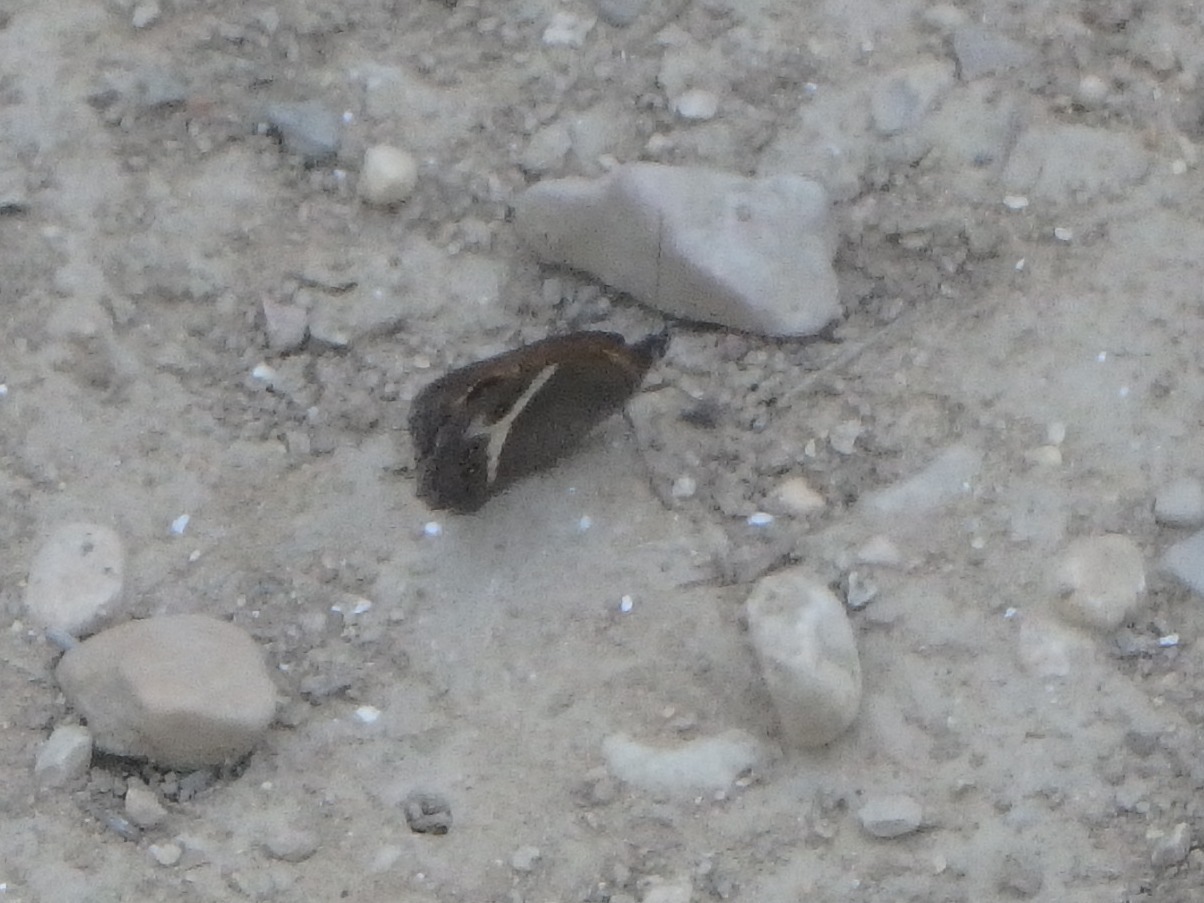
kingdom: Animalia
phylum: Arthropoda
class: Insecta
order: Lepidoptera
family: Nymphalidae
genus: Pyronia
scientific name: Pyronia bathseba
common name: Spanish gatekeeper
